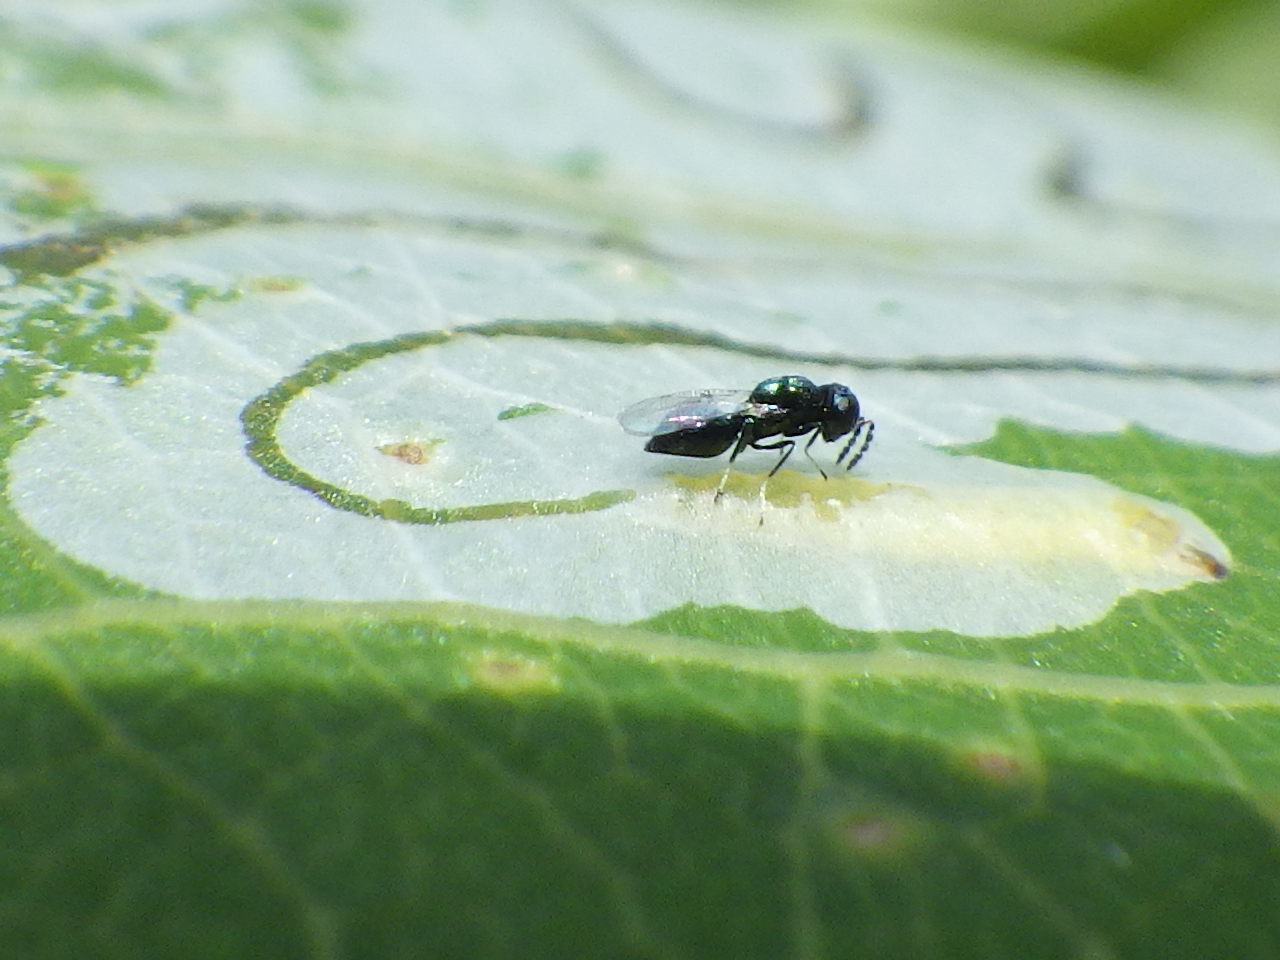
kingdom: Animalia
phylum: Arthropoda
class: Insecta
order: Lepidoptera
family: Gracillariidae
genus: Phyllocnistis
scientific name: Phyllocnistis populiella
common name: Aspen serpentine leafminer moth
